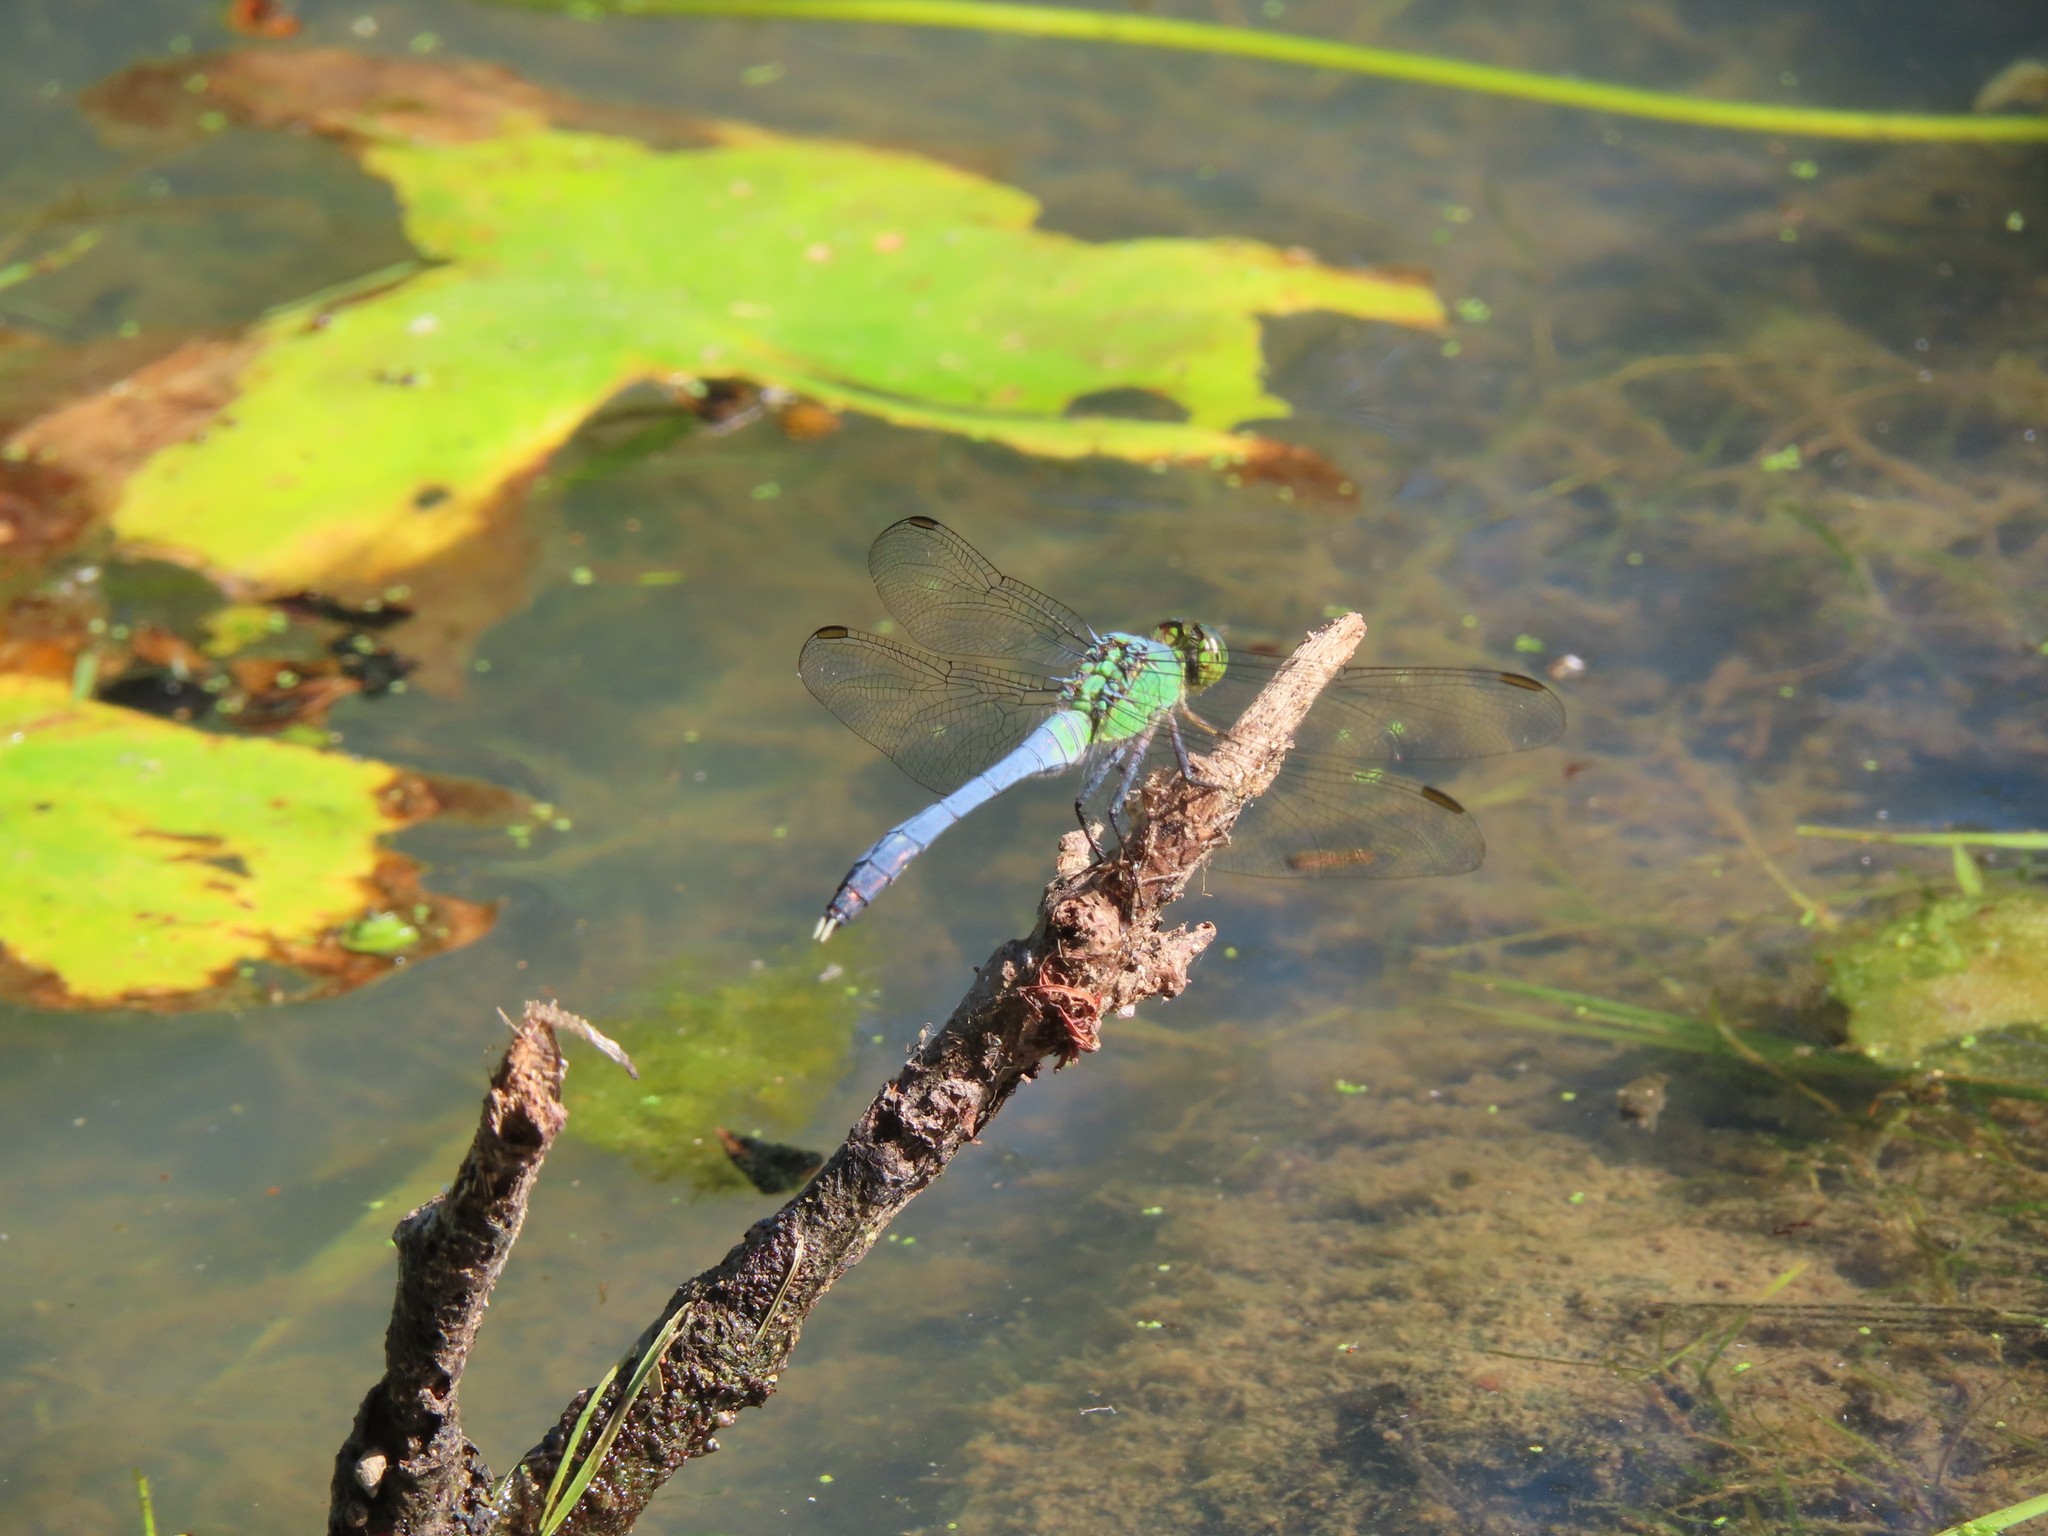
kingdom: Animalia
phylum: Arthropoda
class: Insecta
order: Odonata
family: Libellulidae
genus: Erythemis
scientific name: Erythemis simplicicollis
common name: Eastern pondhawk
